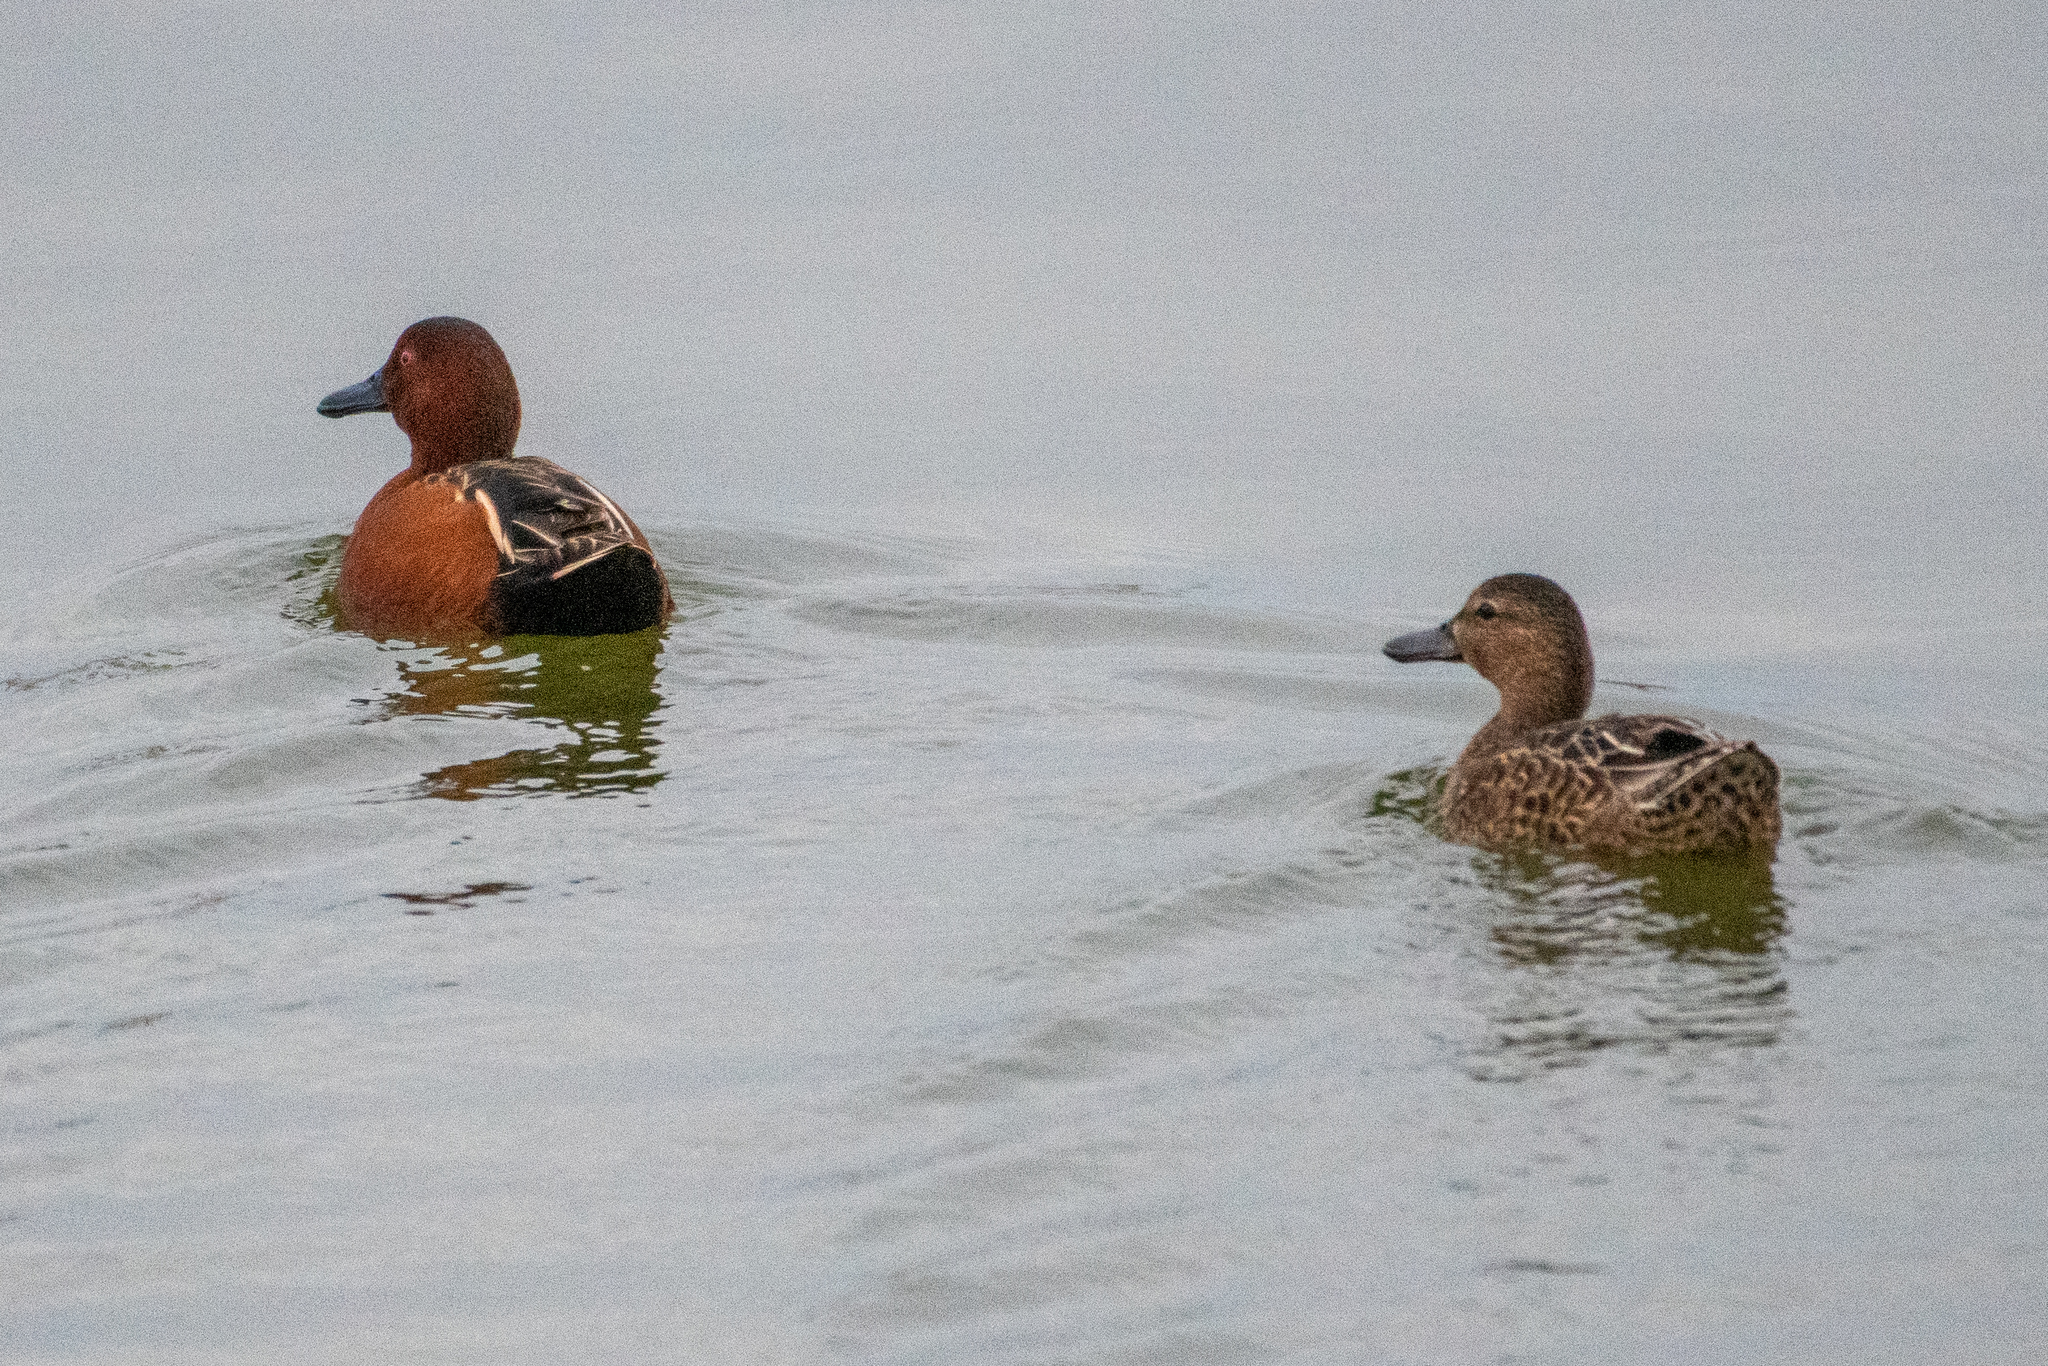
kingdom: Animalia
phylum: Chordata
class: Aves
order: Anseriformes
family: Anatidae
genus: Spatula
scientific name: Spatula cyanoptera
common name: Cinnamon teal
